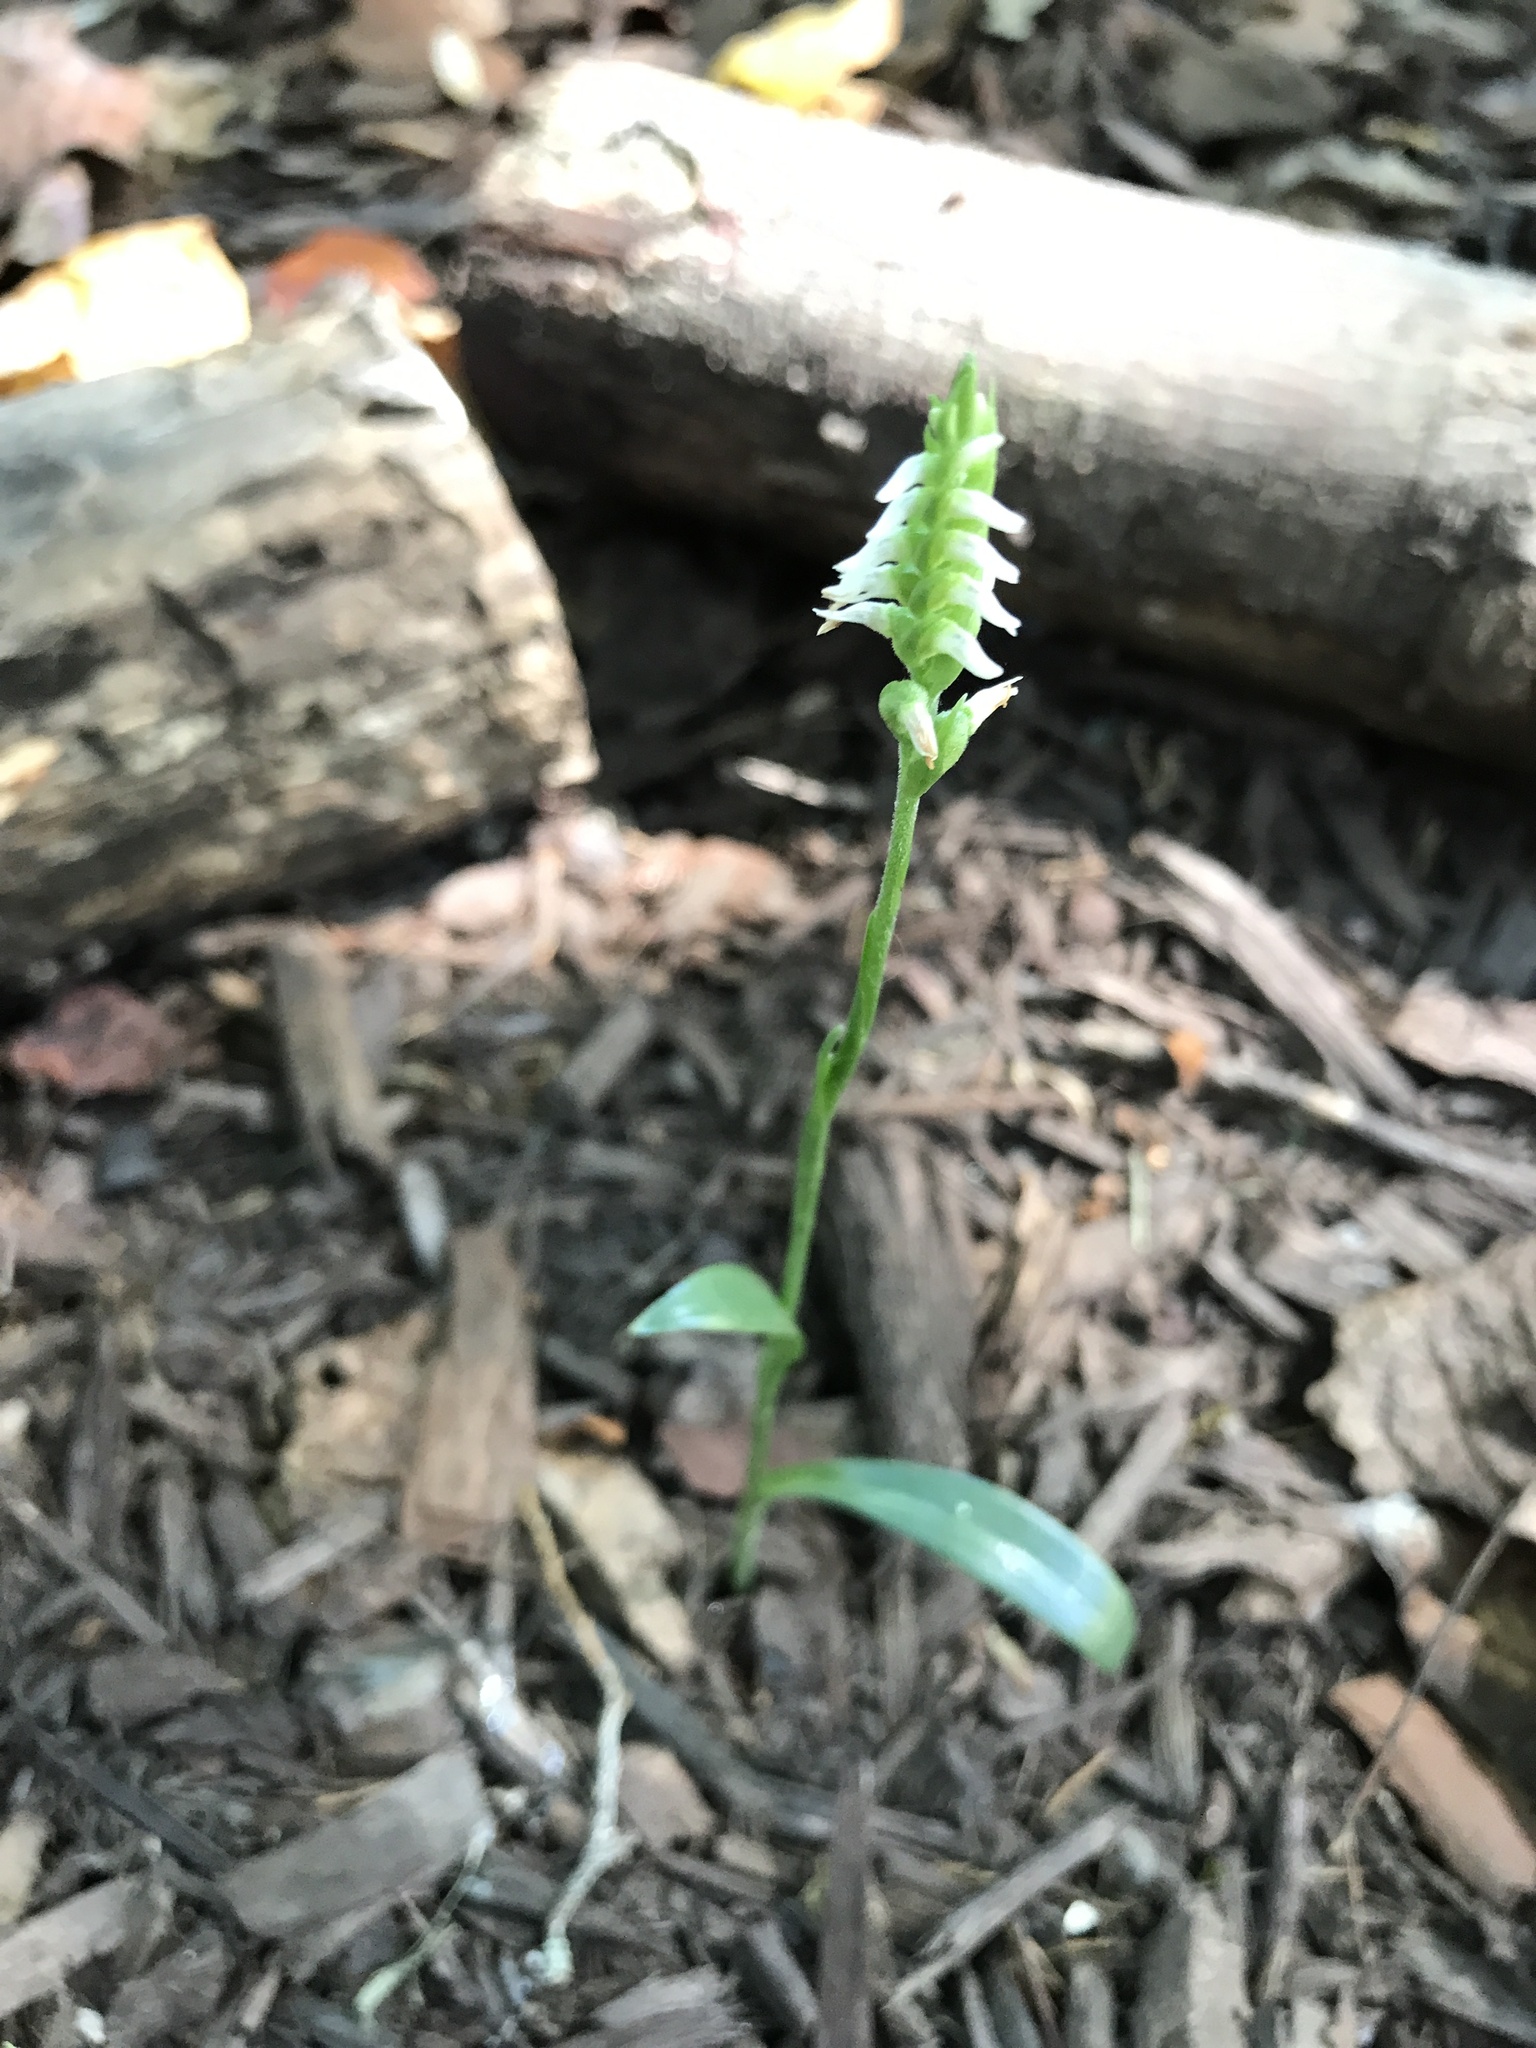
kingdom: Plantae
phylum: Tracheophyta
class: Liliopsida
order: Asparagales
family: Orchidaceae
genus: Spiranthes
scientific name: Spiranthes ovalis
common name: October ladies'-tresses
